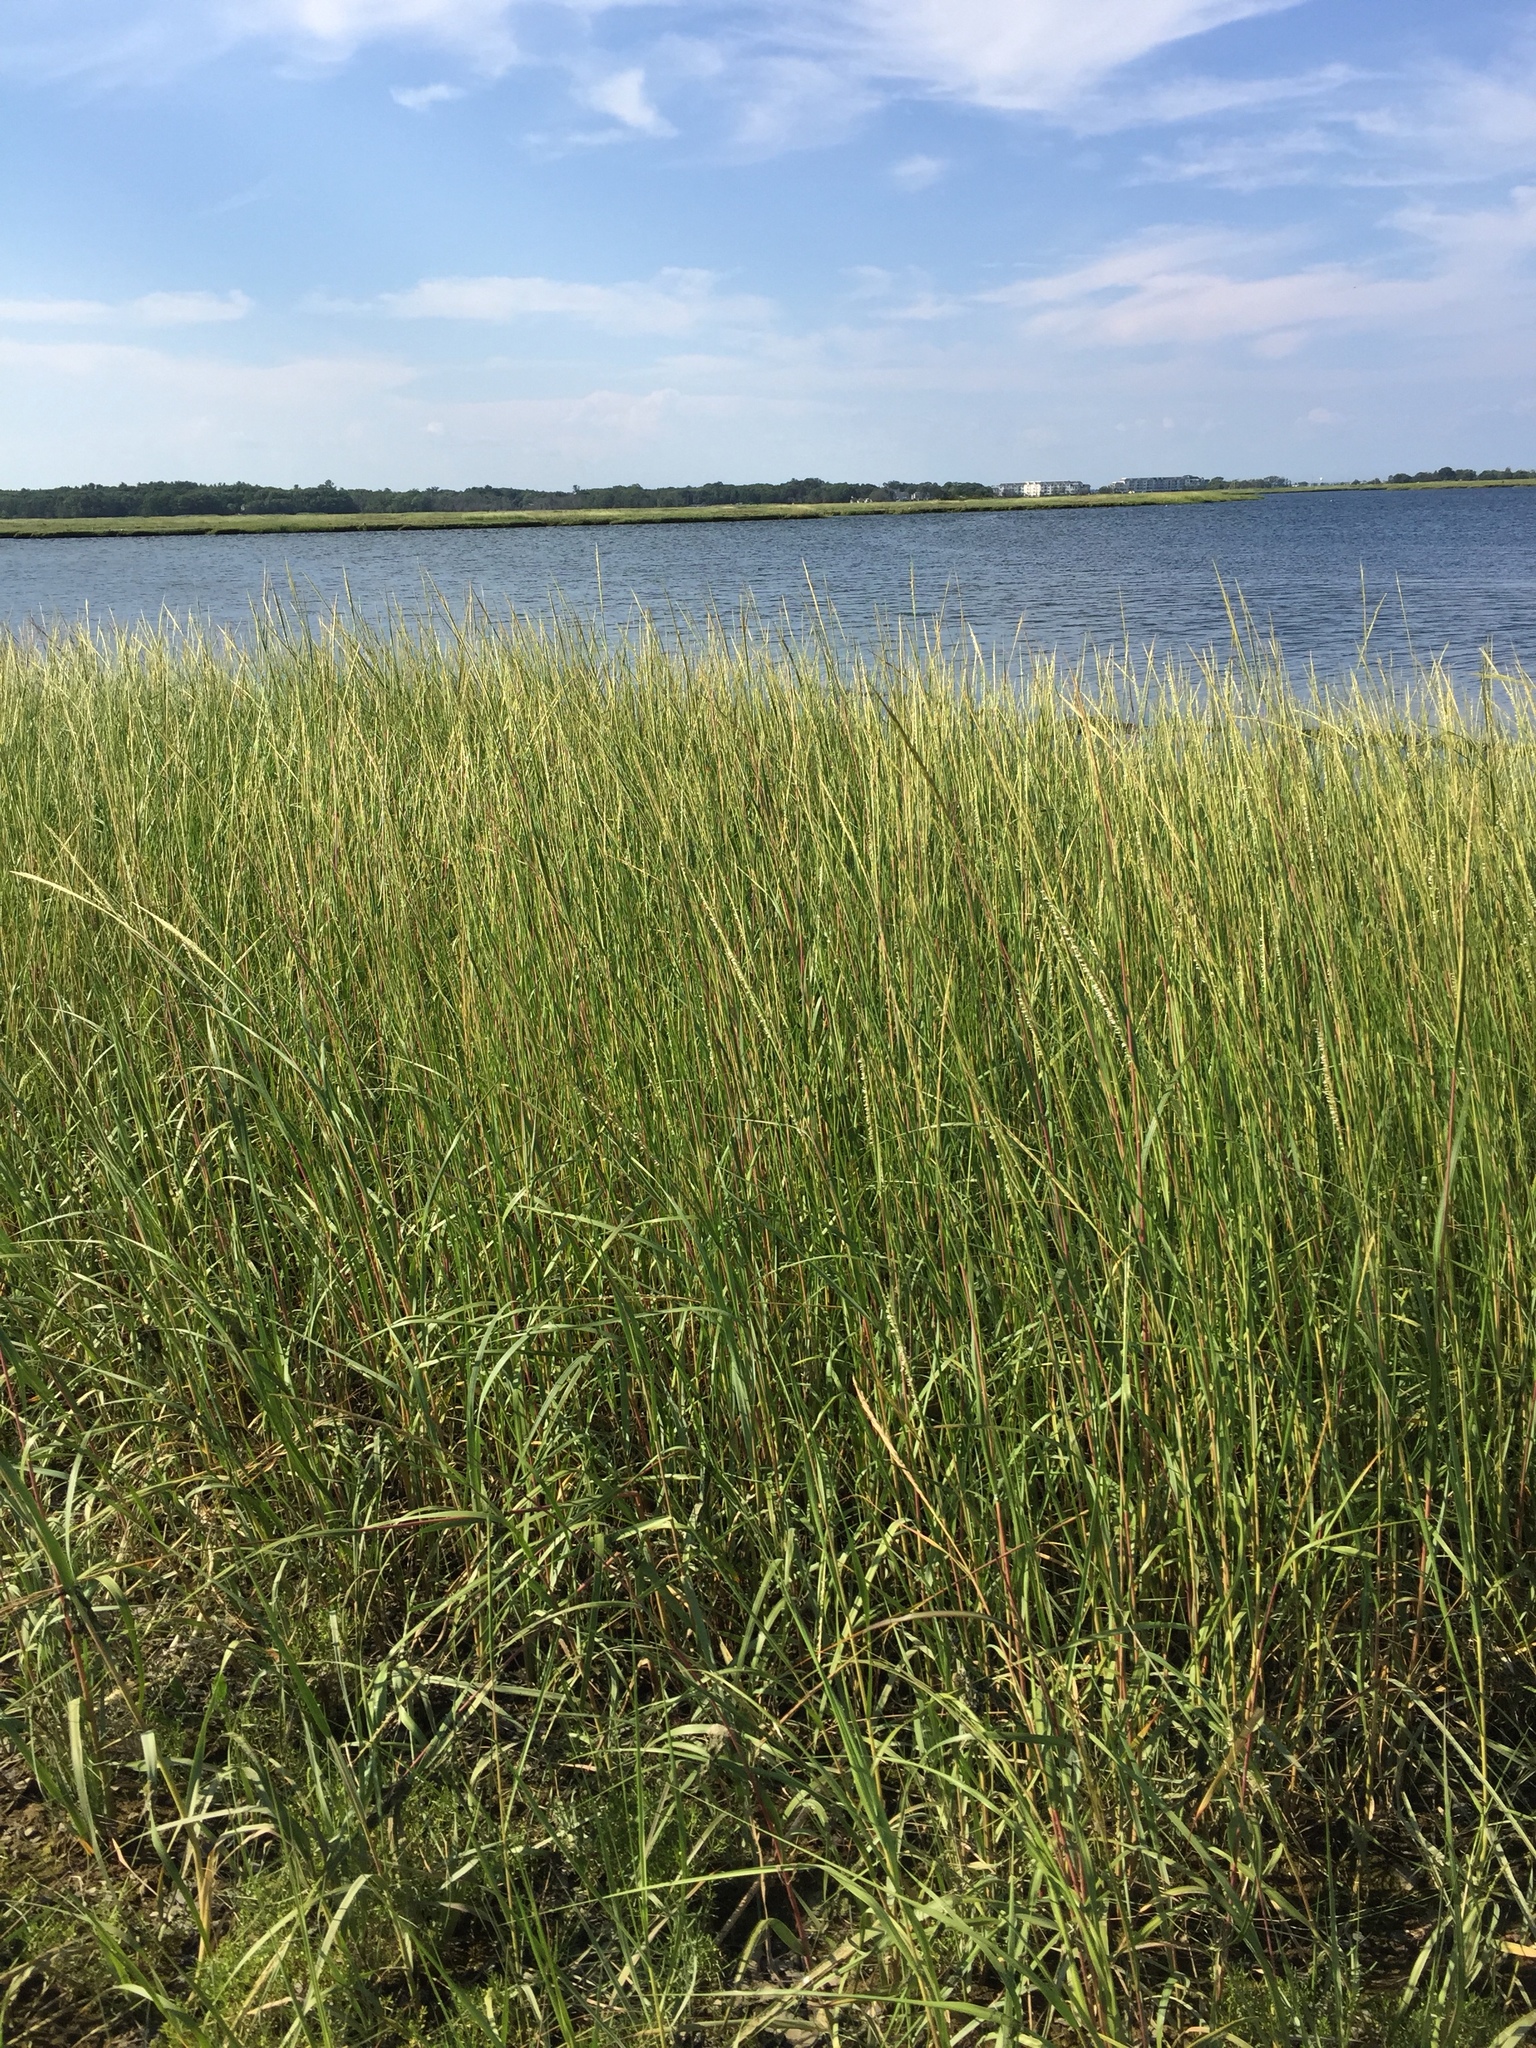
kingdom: Plantae
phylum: Tracheophyta
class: Liliopsida
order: Poales
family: Poaceae
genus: Sporobolus
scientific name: Sporobolus alterniflorus
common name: Atlantic cordgrass
